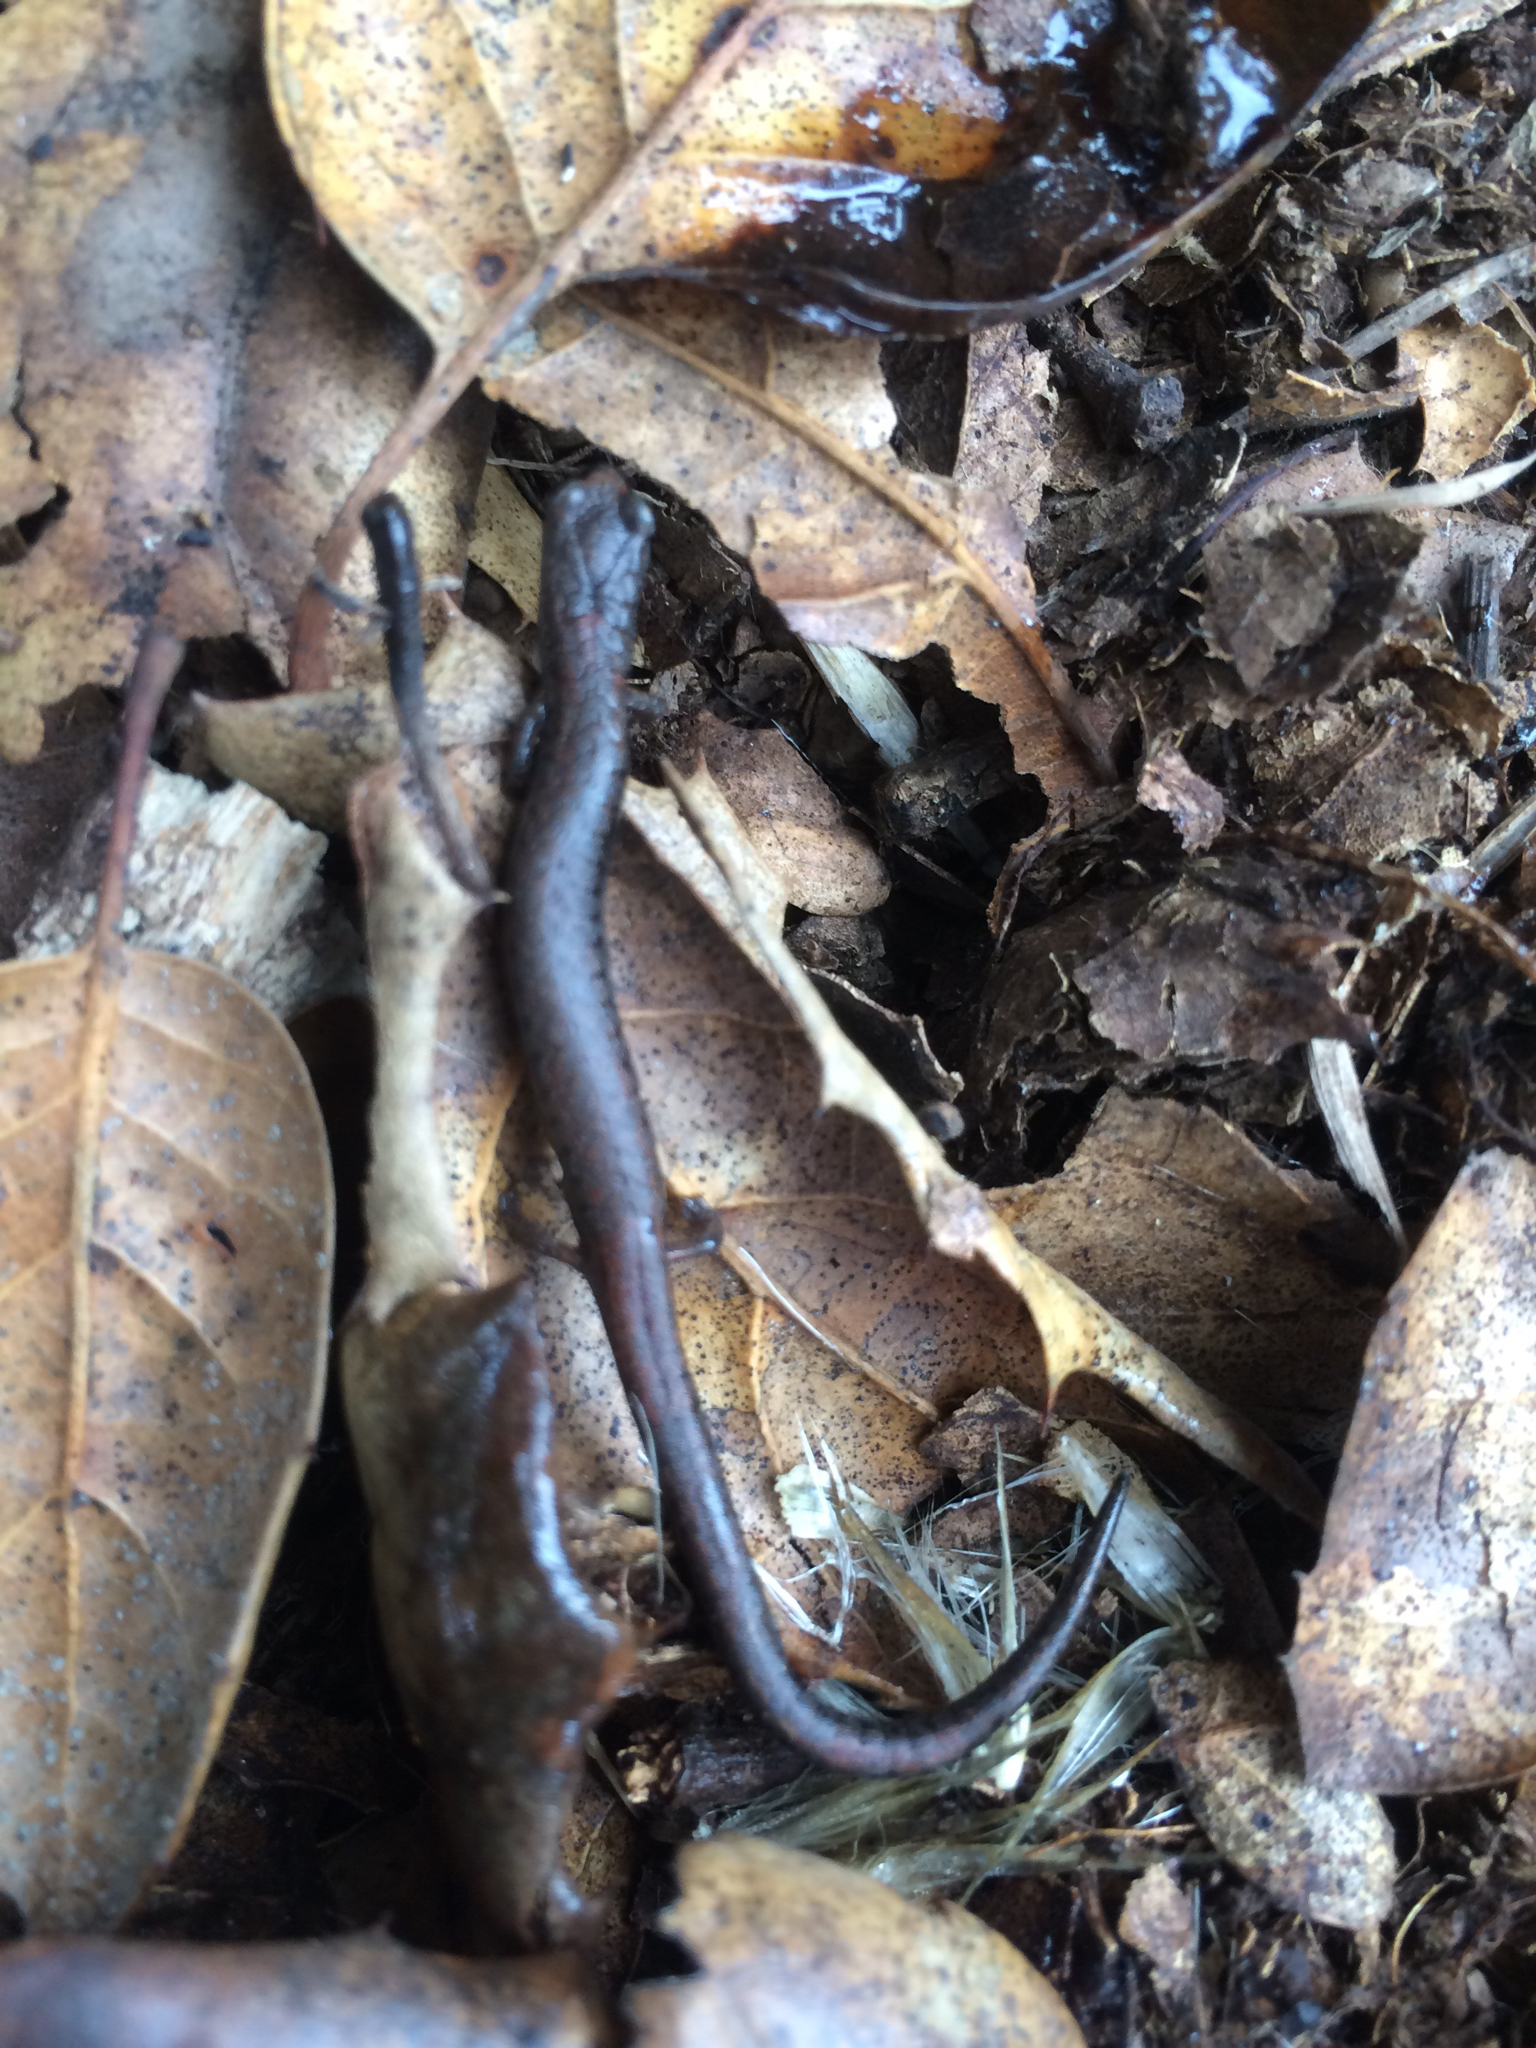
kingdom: Animalia
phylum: Chordata
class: Amphibia
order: Caudata
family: Plethodontidae
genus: Batrachoseps
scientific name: Batrachoseps attenuatus
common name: California slender salamander
